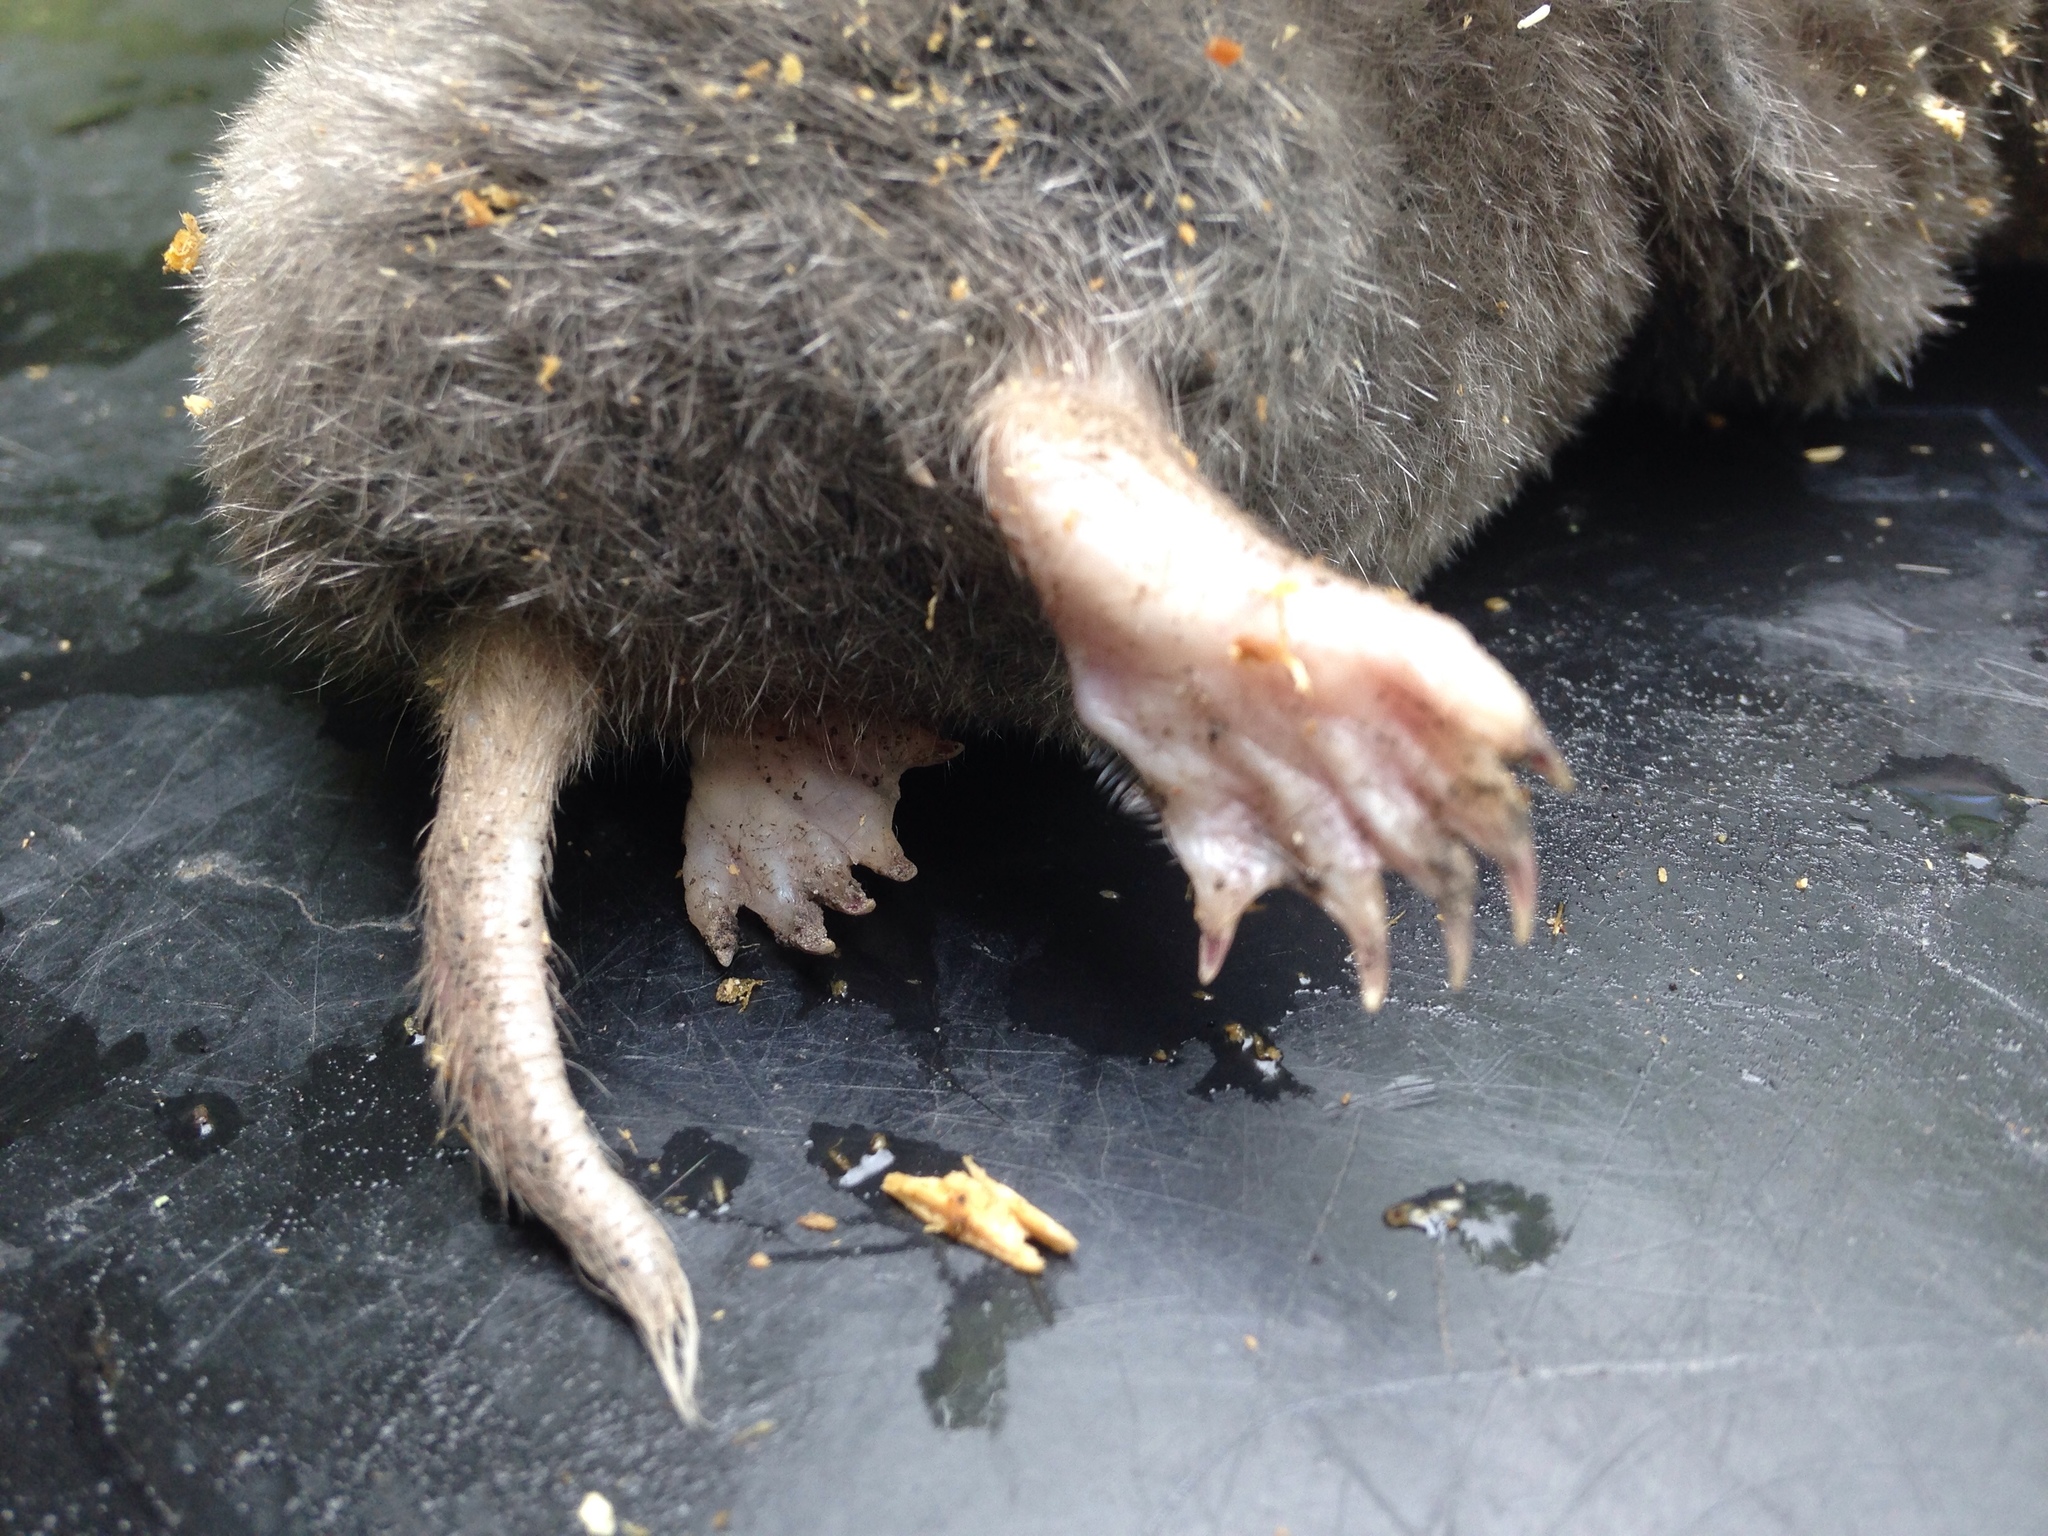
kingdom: Animalia
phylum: Chordata
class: Mammalia
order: Soricomorpha
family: Talpidae
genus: Scalopus
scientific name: Scalopus aquaticus
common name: Eastern mole
